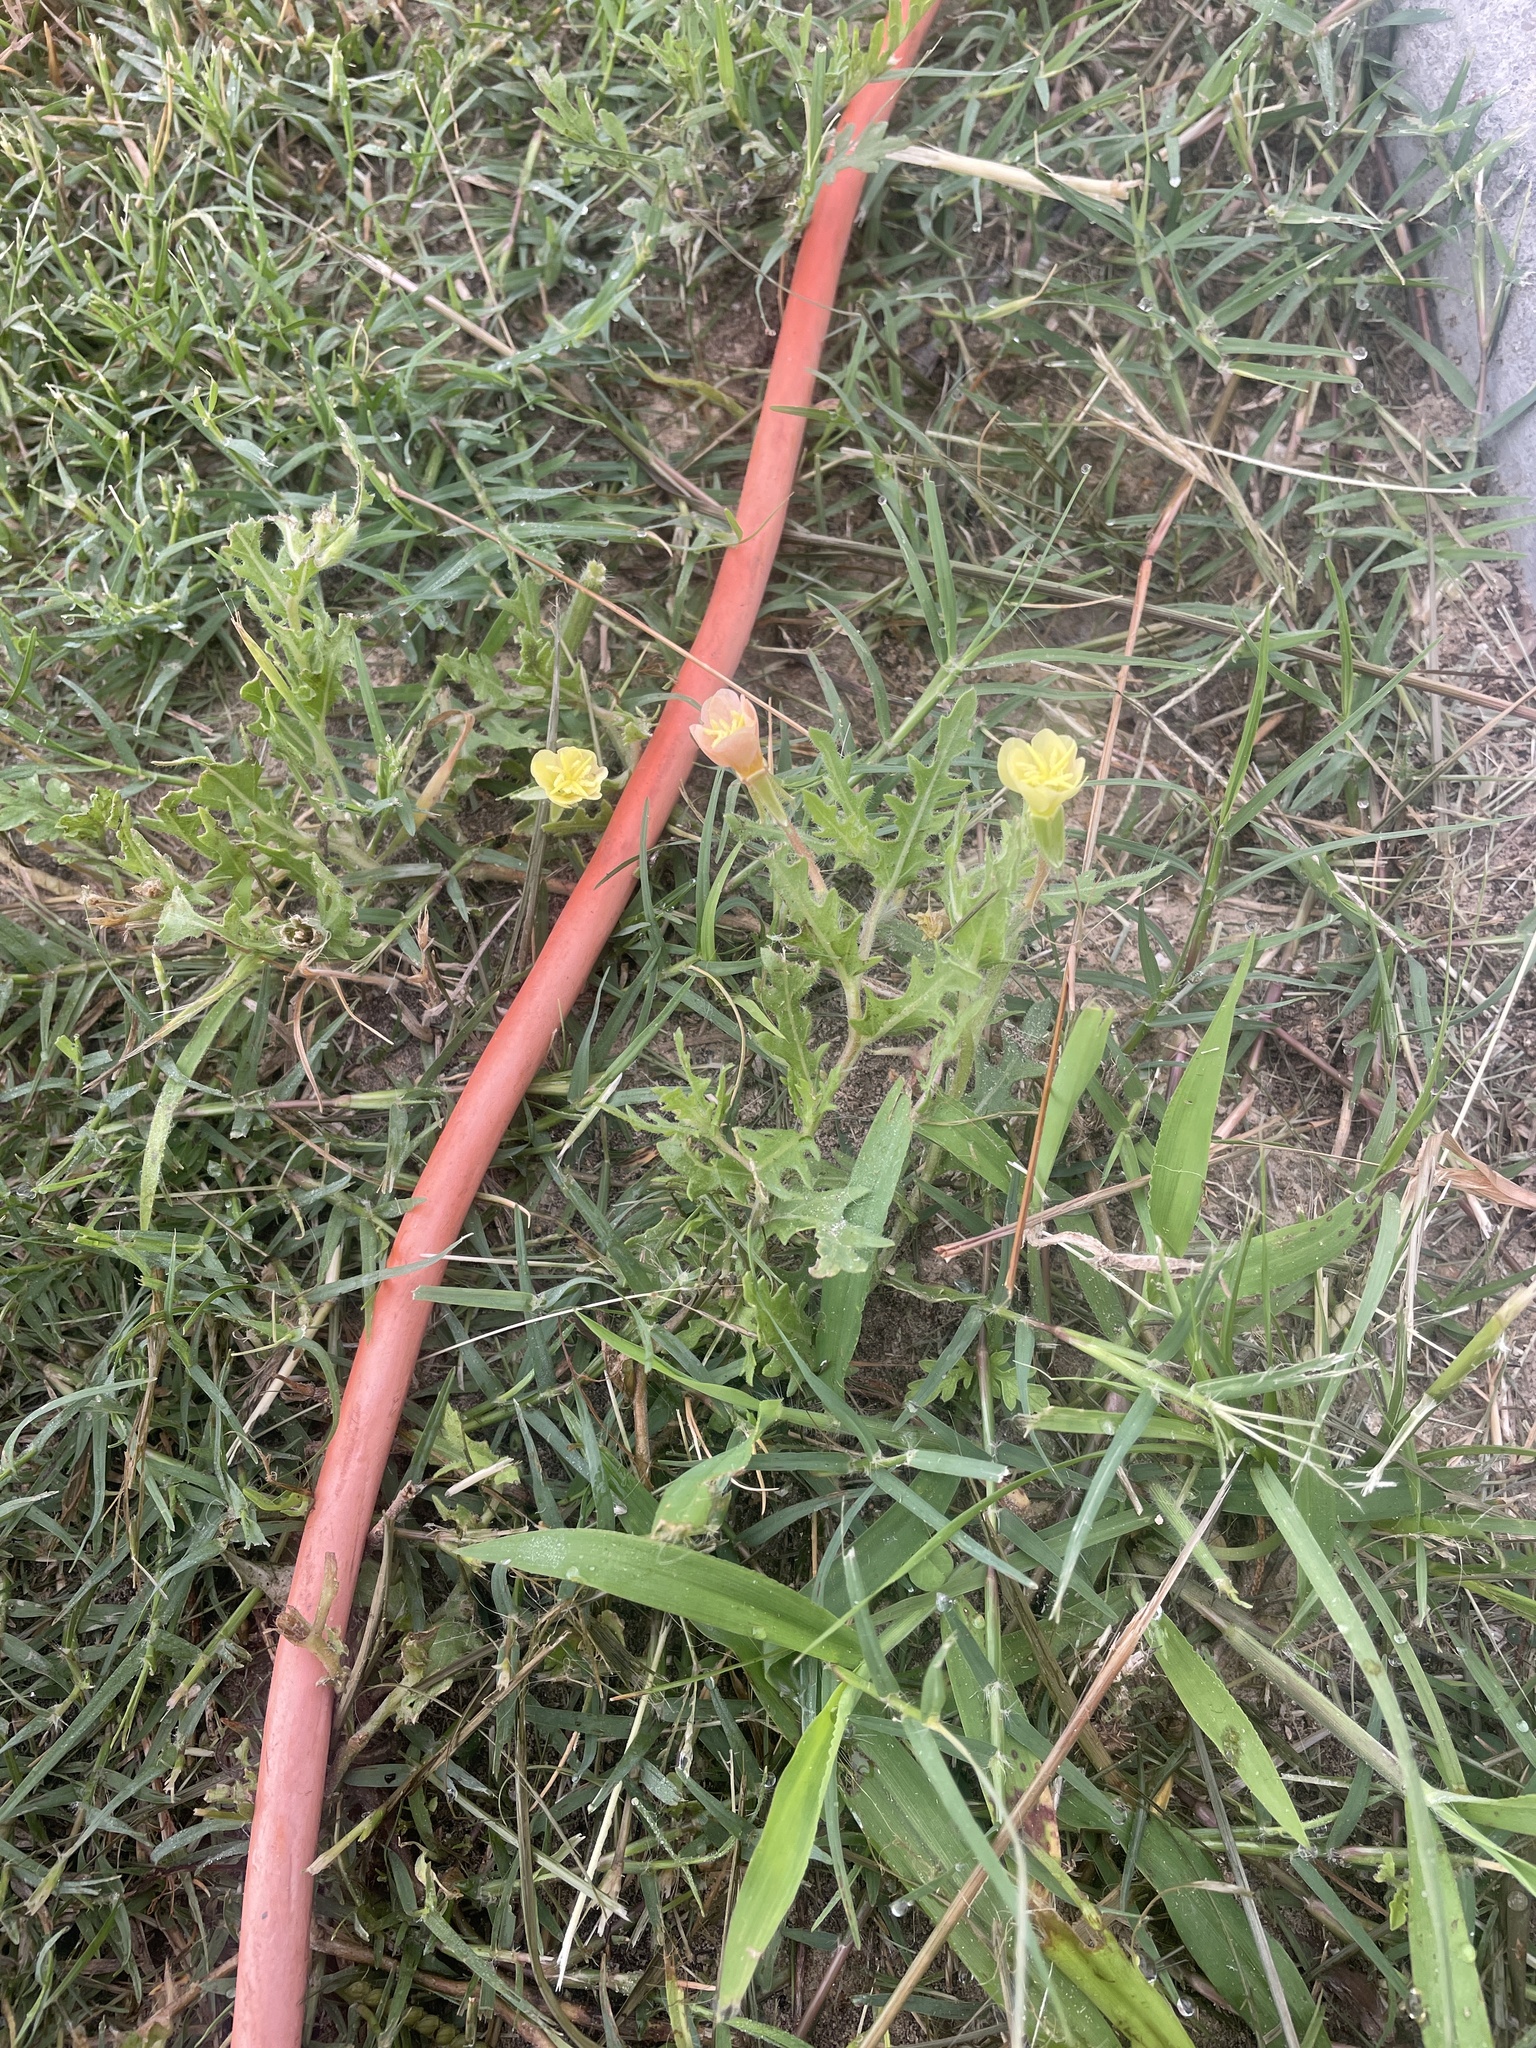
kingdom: Plantae
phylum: Tracheophyta
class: Magnoliopsida
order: Myrtales
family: Onagraceae
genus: Oenothera
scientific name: Oenothera laciniata
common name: Cut-leaved evening-primrose
